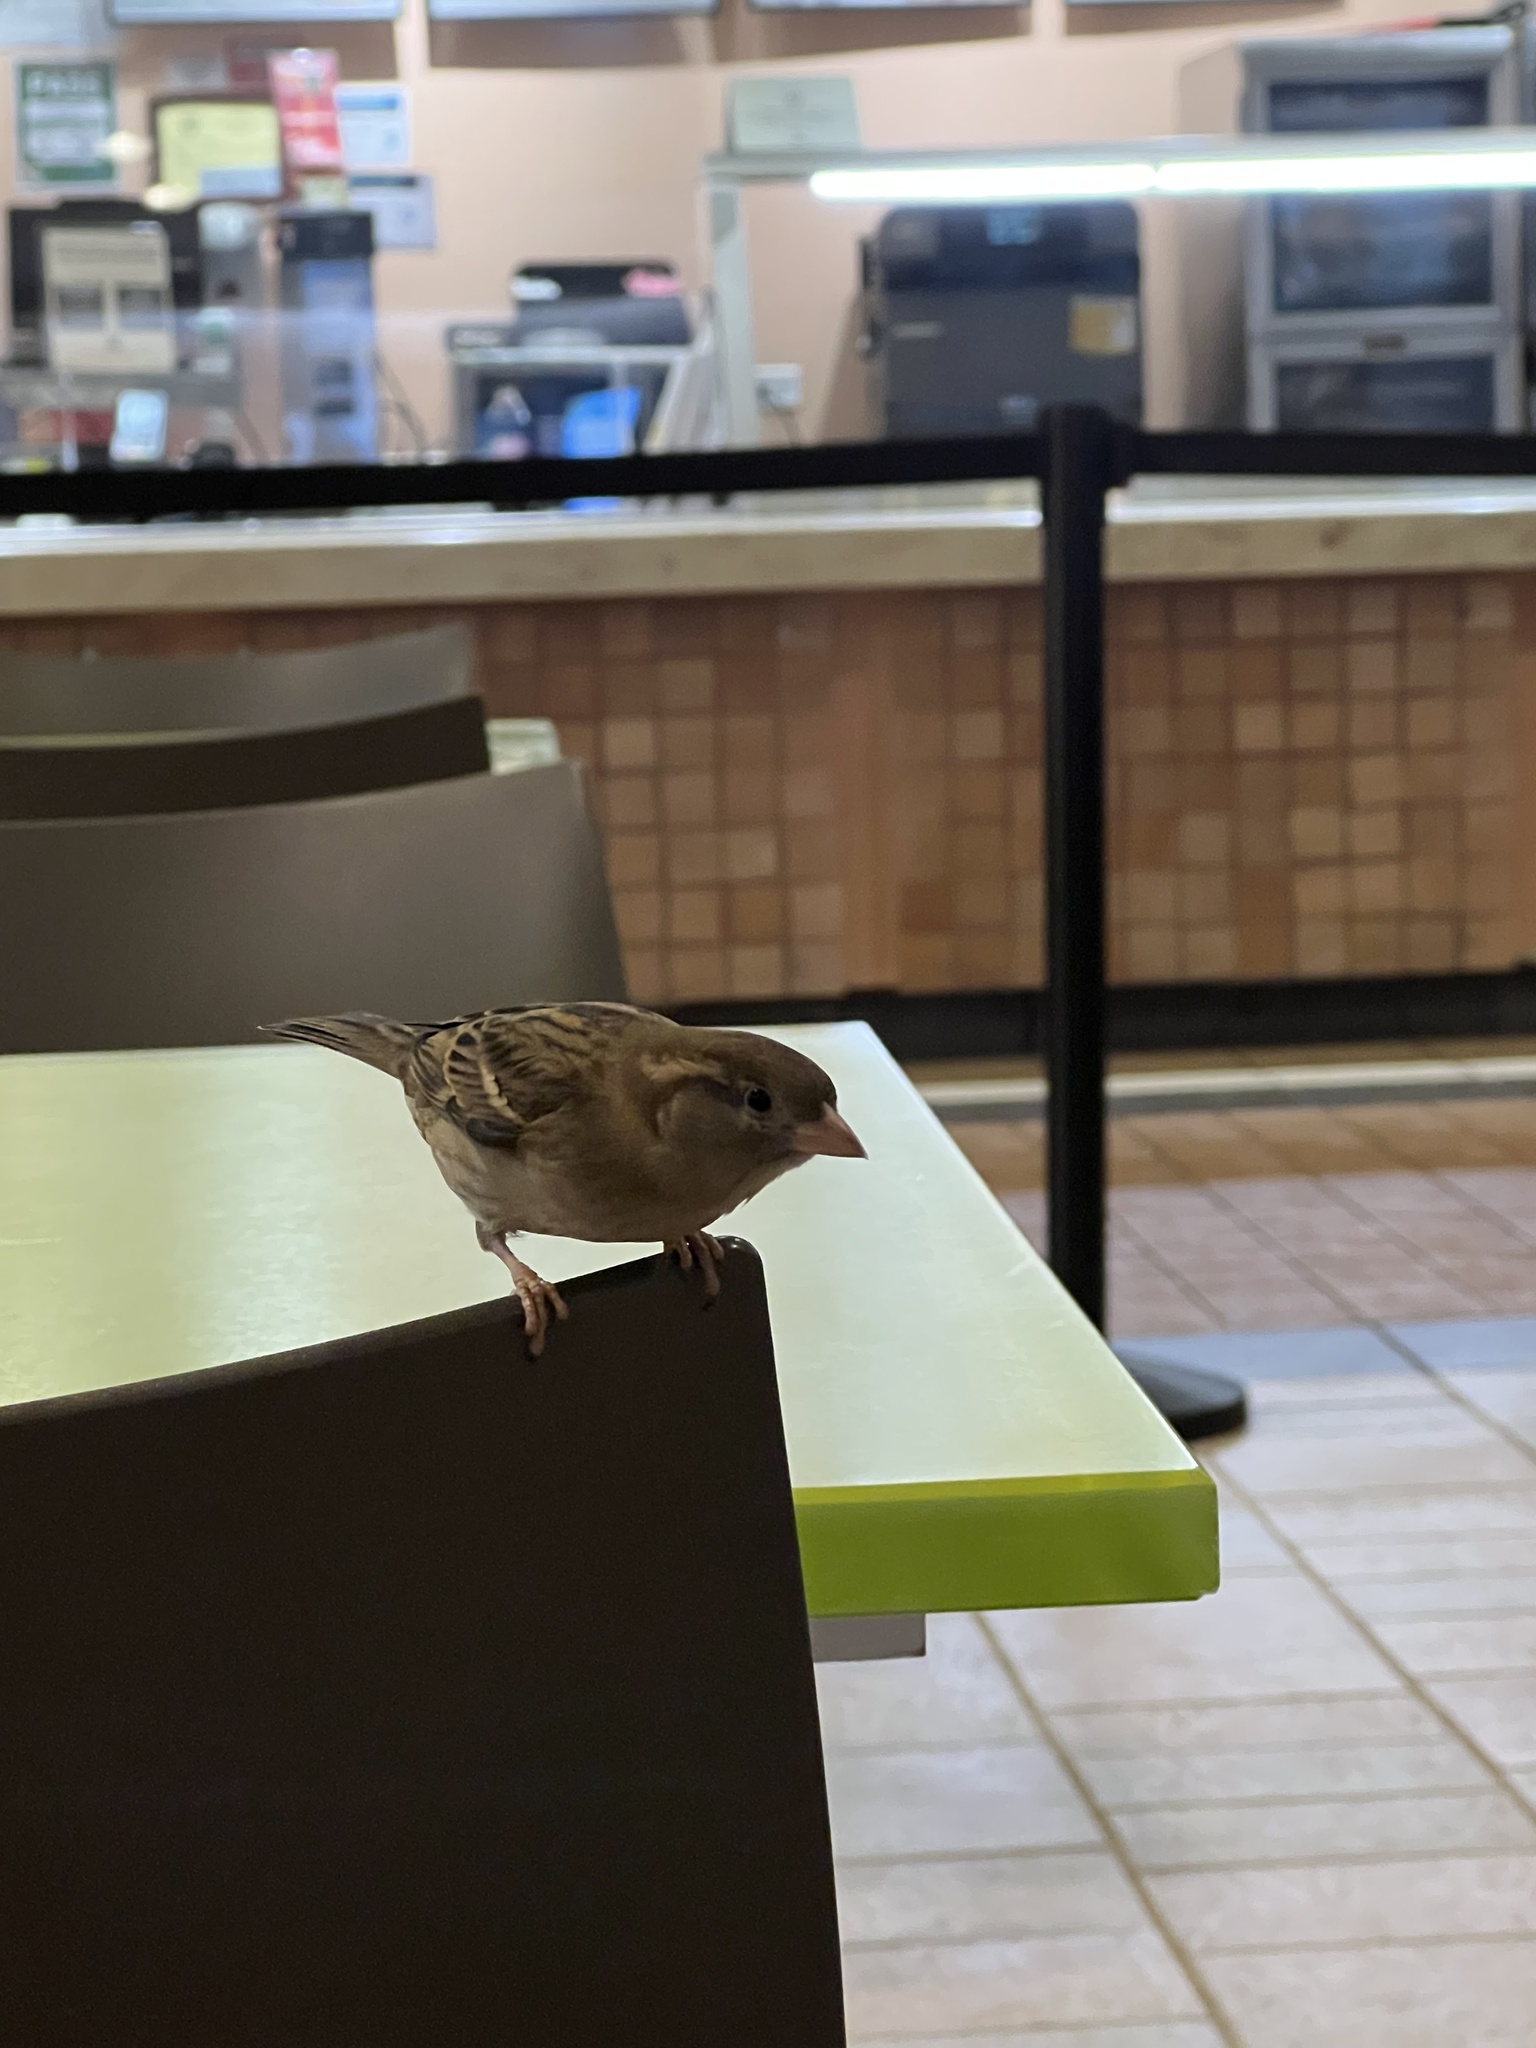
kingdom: Animalia
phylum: Chordata
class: Aves
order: Passeriformes
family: Passeridae
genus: Passer
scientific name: Passer domesticus
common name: House sparrow
